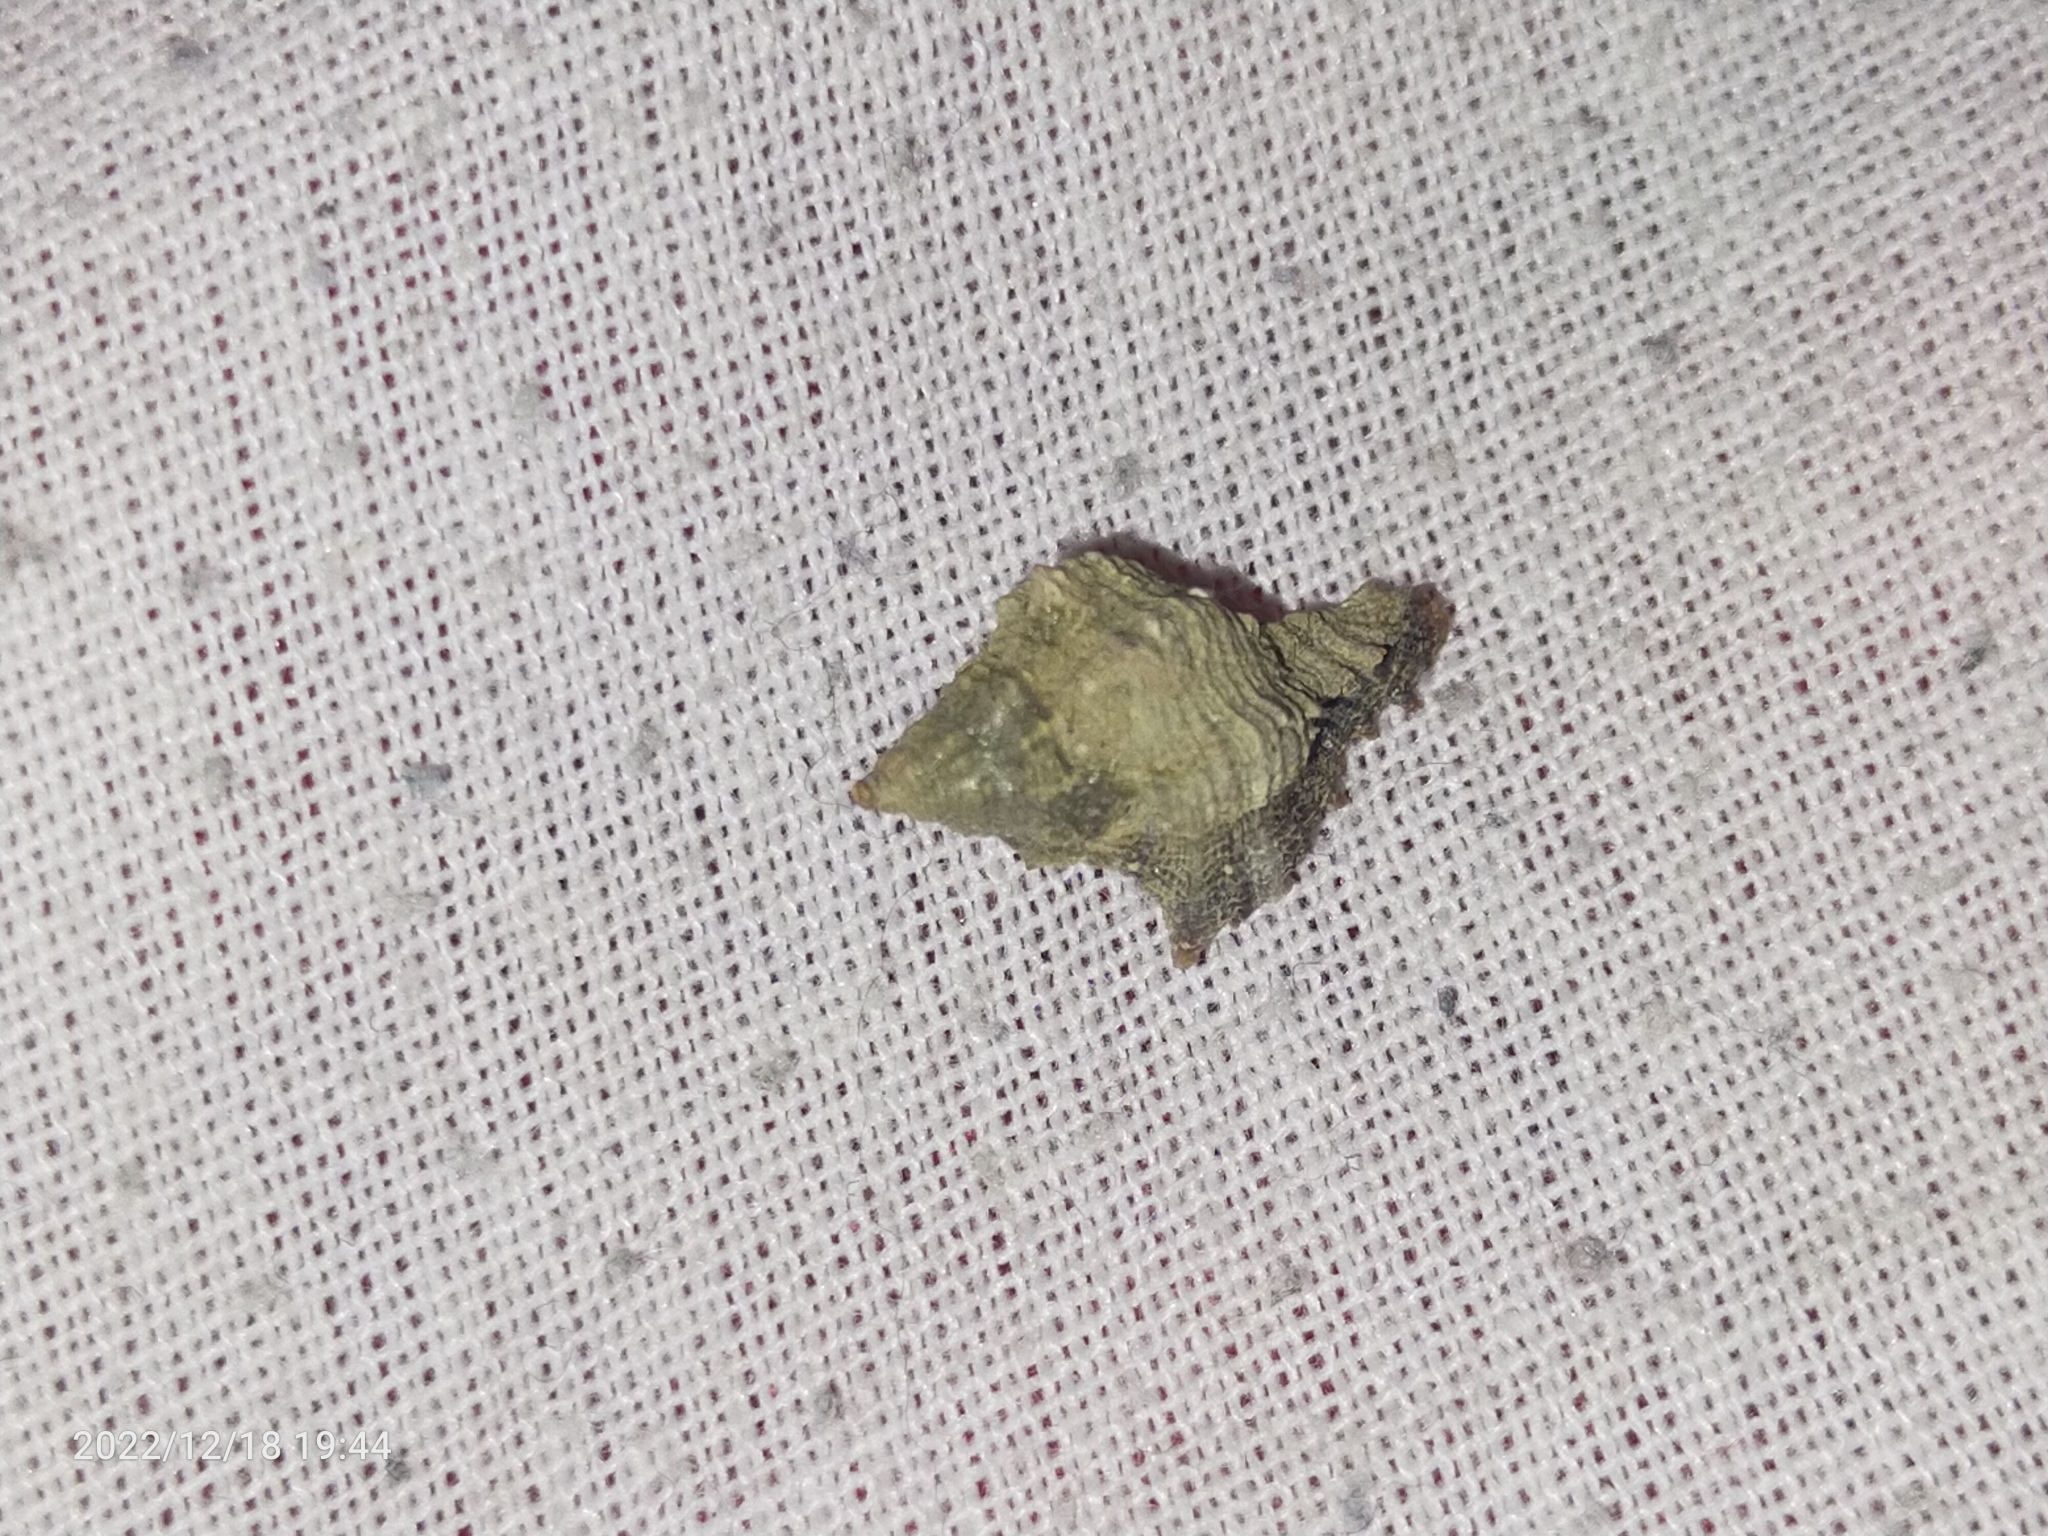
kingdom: Animalia
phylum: Mollusca
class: Gastropoda
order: Neogastropoda
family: Muricidae
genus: Hexaplex
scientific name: Hexaplex trunculus
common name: Banded dye-murex
